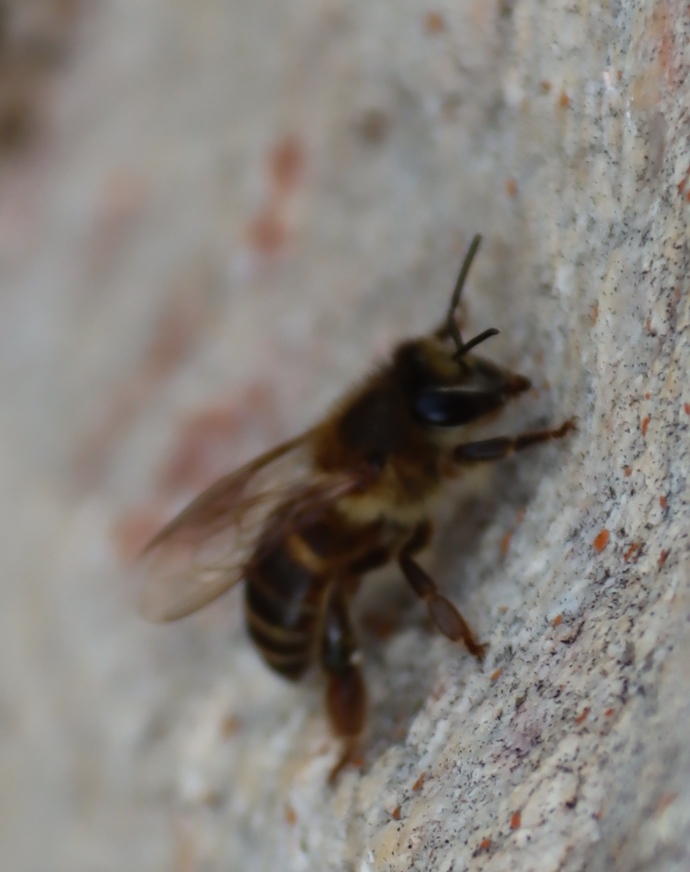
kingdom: Animalia
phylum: Arthropoda
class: Insecta
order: Hymenoptera
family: Apidae
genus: Apis
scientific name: Apis mellifera
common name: Honey bee
